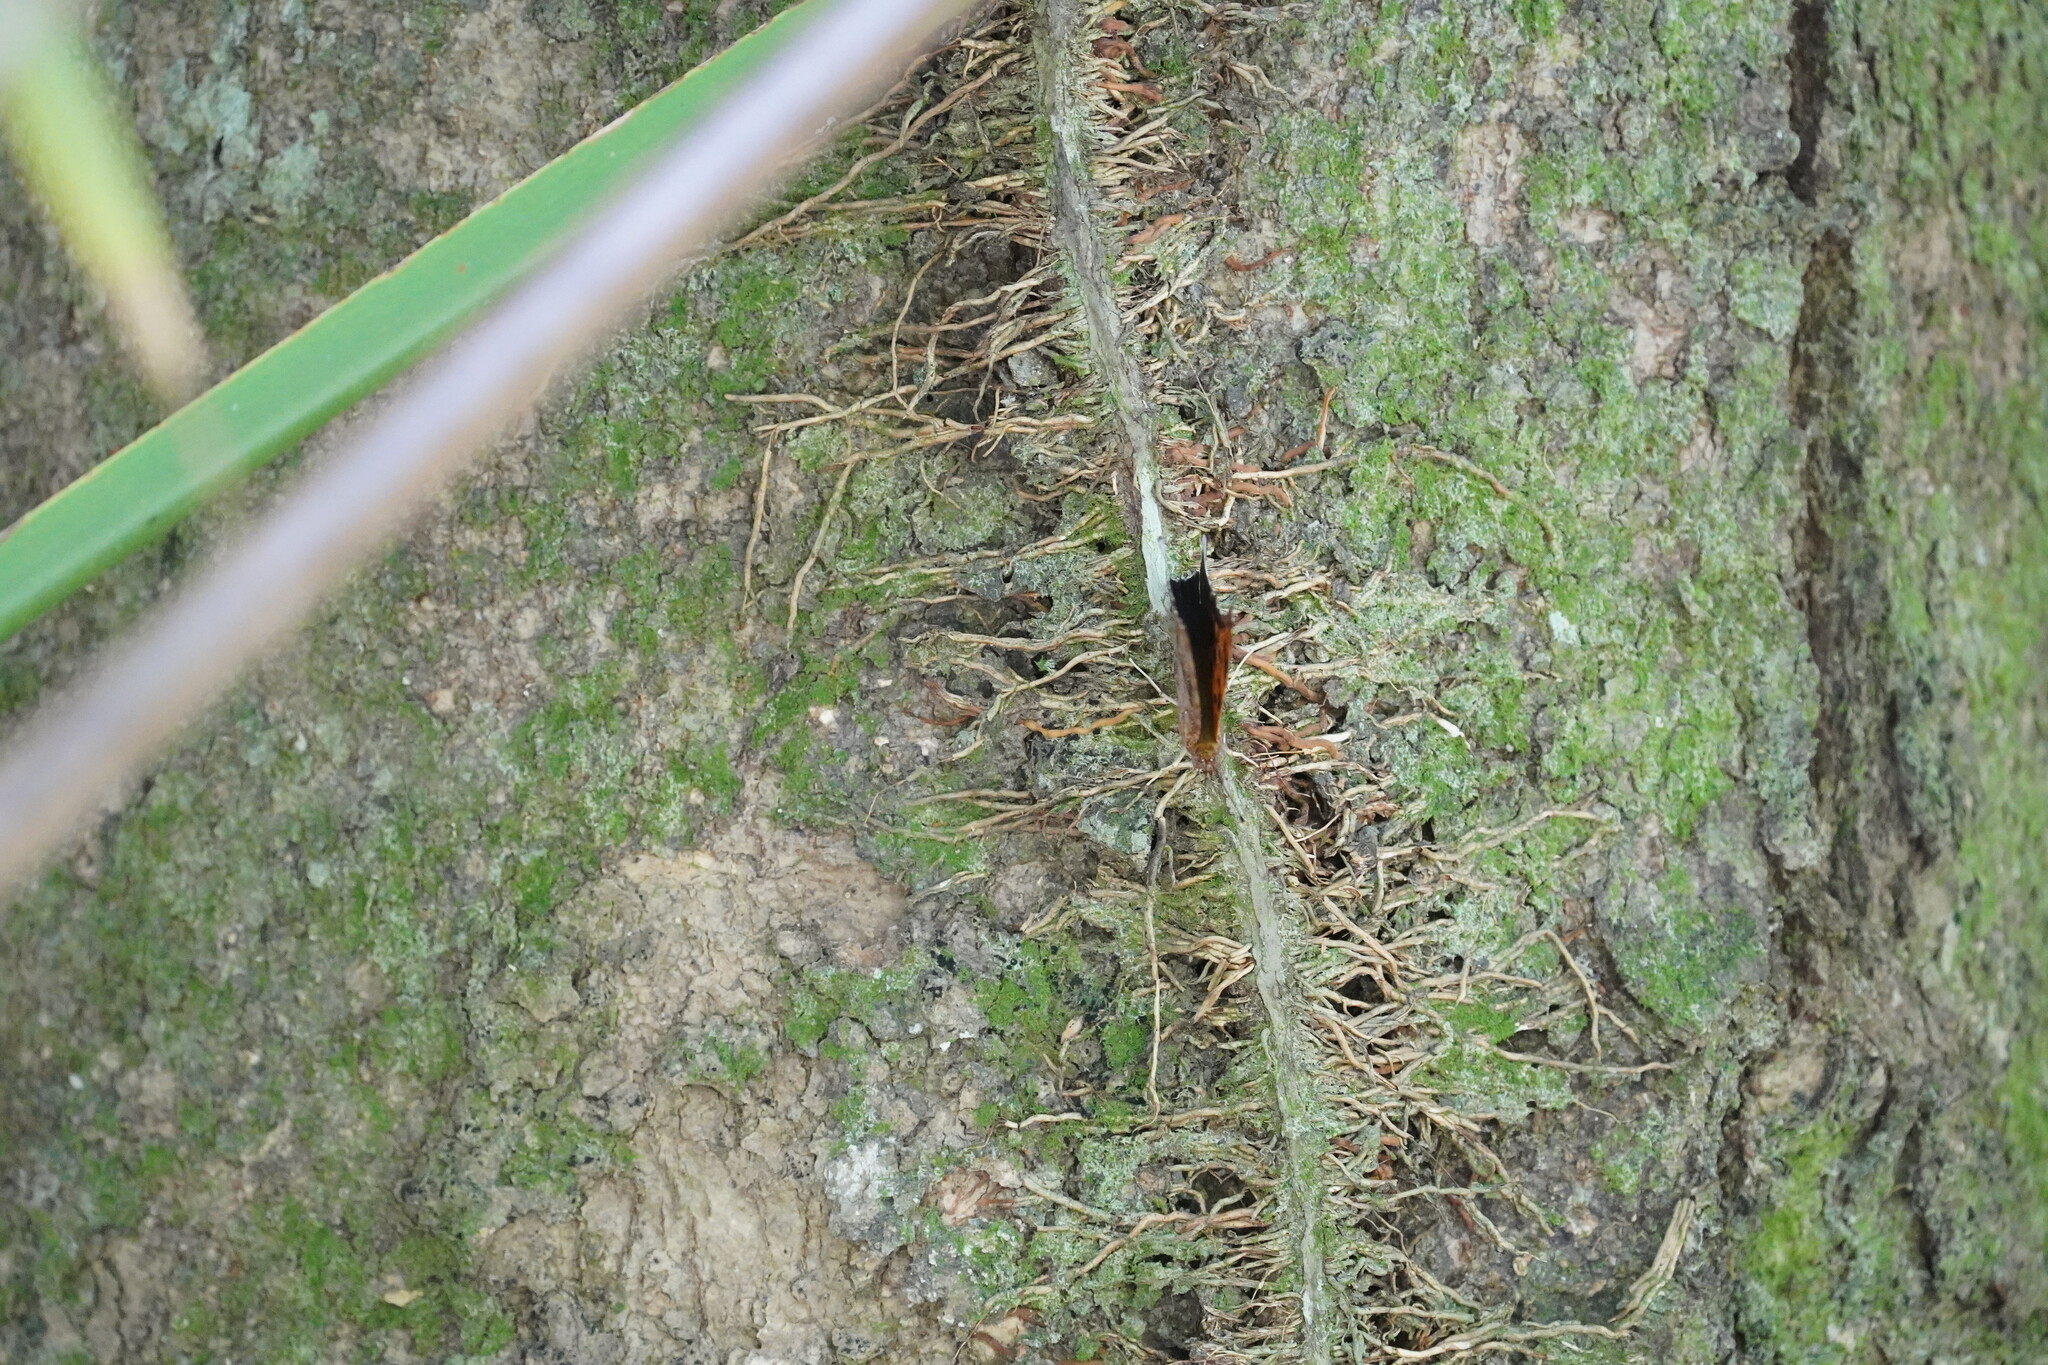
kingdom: Animalia
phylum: Arthropoda
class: Insecta
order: Lepidoptera
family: Nymphalidae
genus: Polygonia
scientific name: Polygonia interrogationis
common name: Question mark
